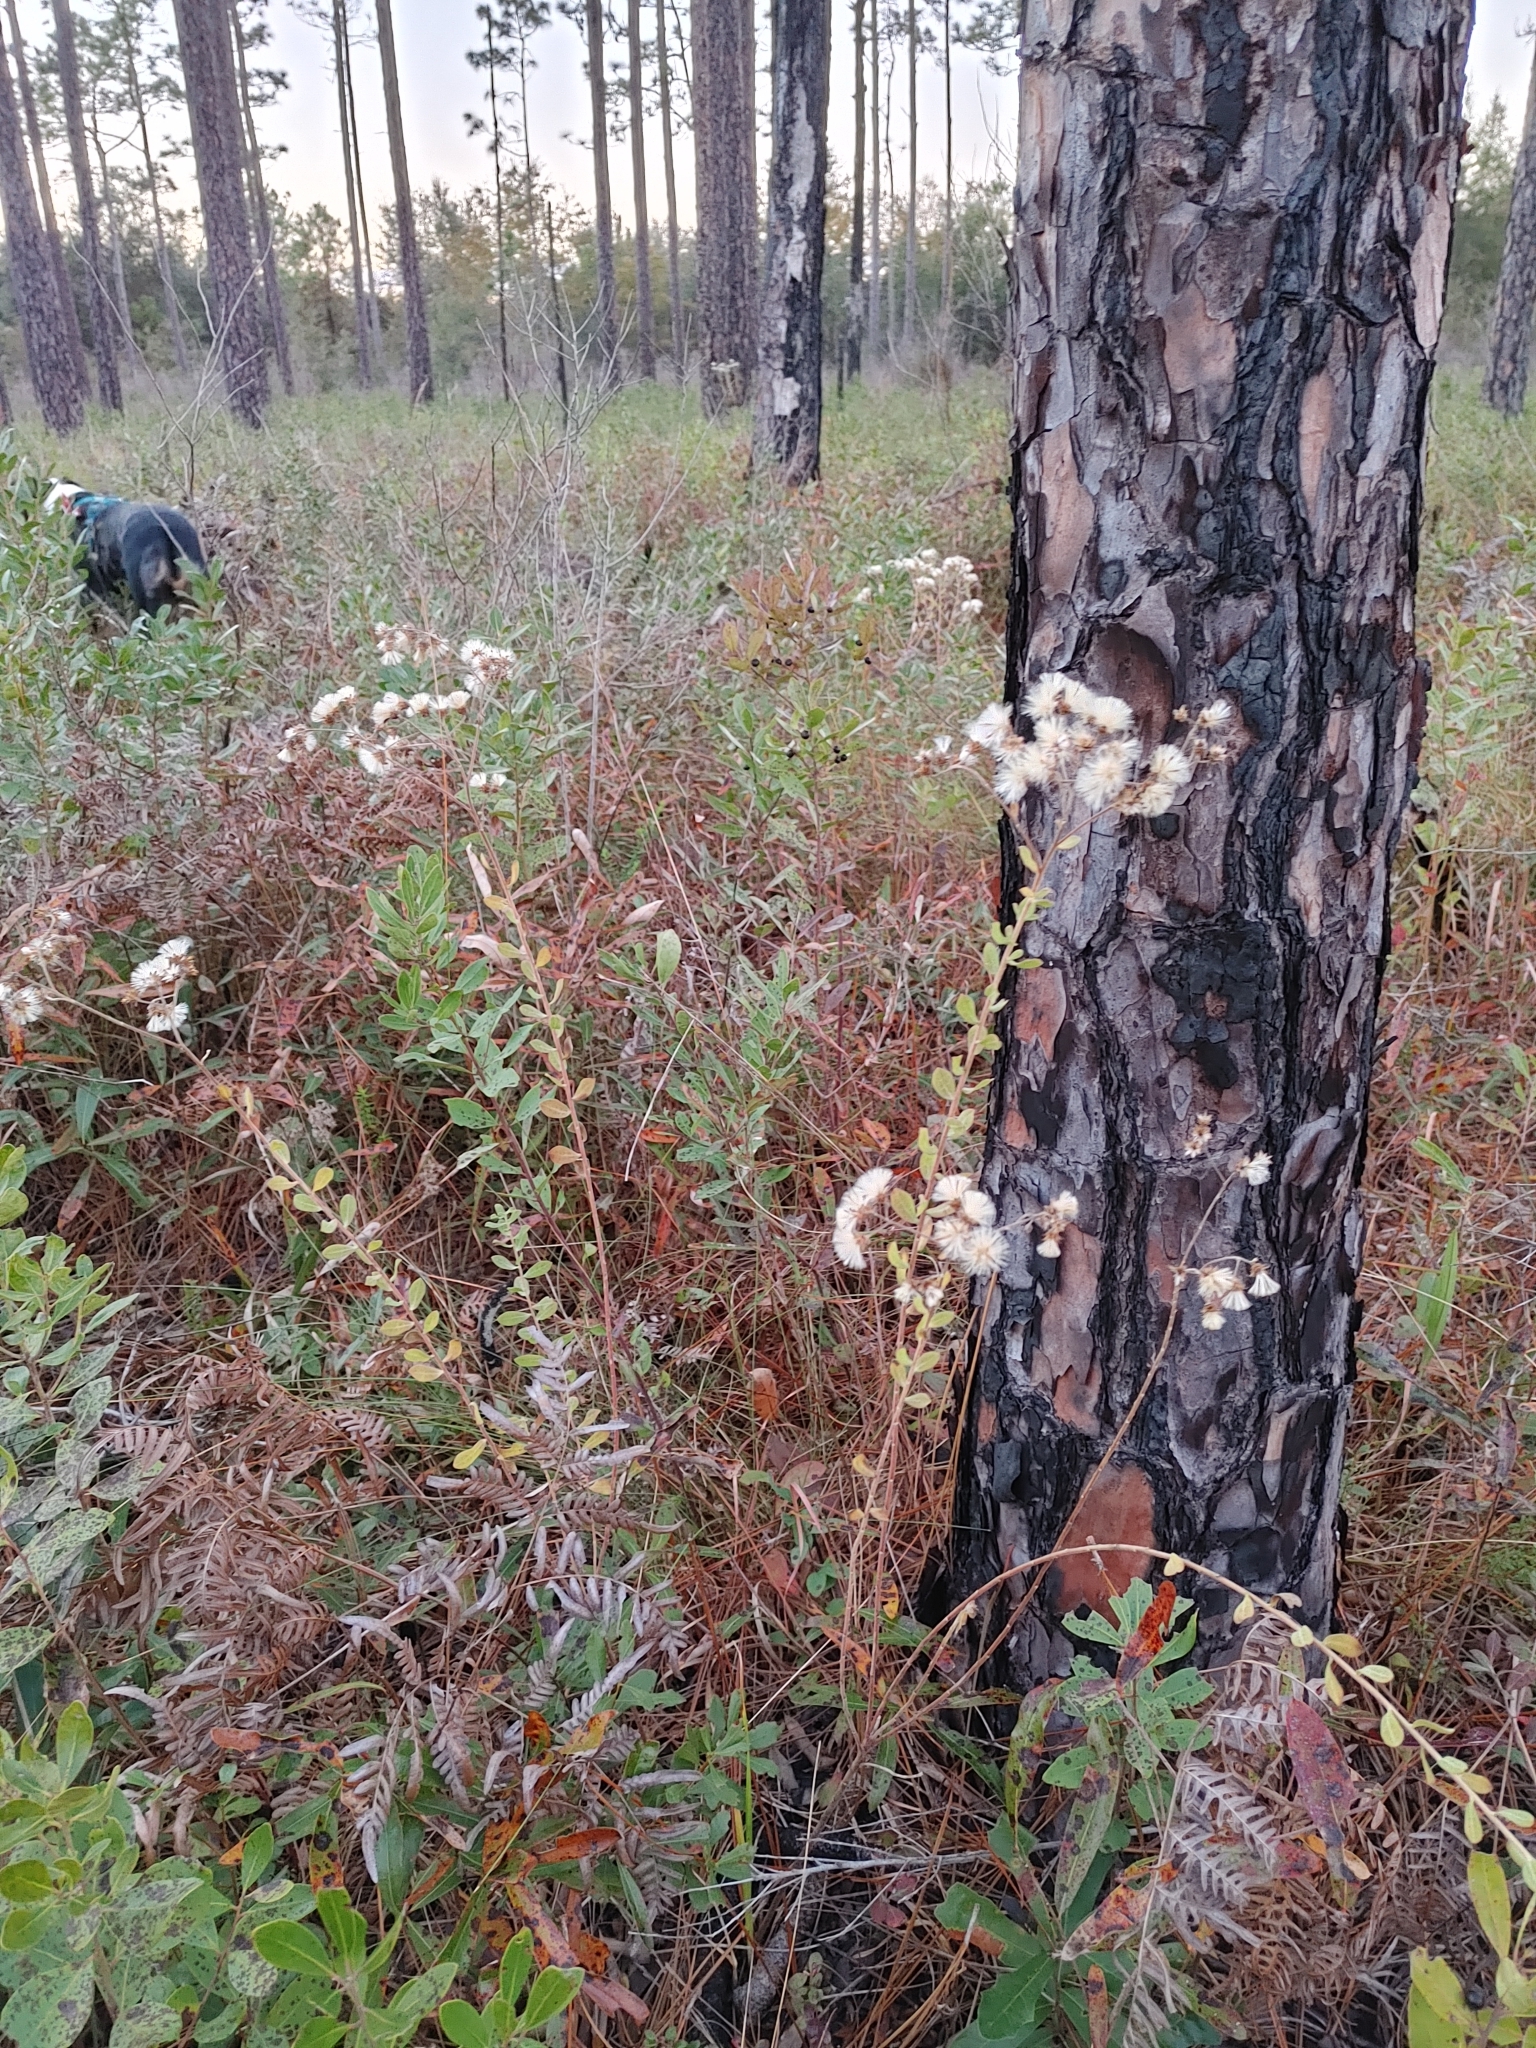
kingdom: Plantae
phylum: Tracheophyta
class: Magnoliopsida
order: Asterales
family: Asteraceae
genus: Sericocarpus
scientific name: Sericocarpus tortifolius
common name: Dixie aster
